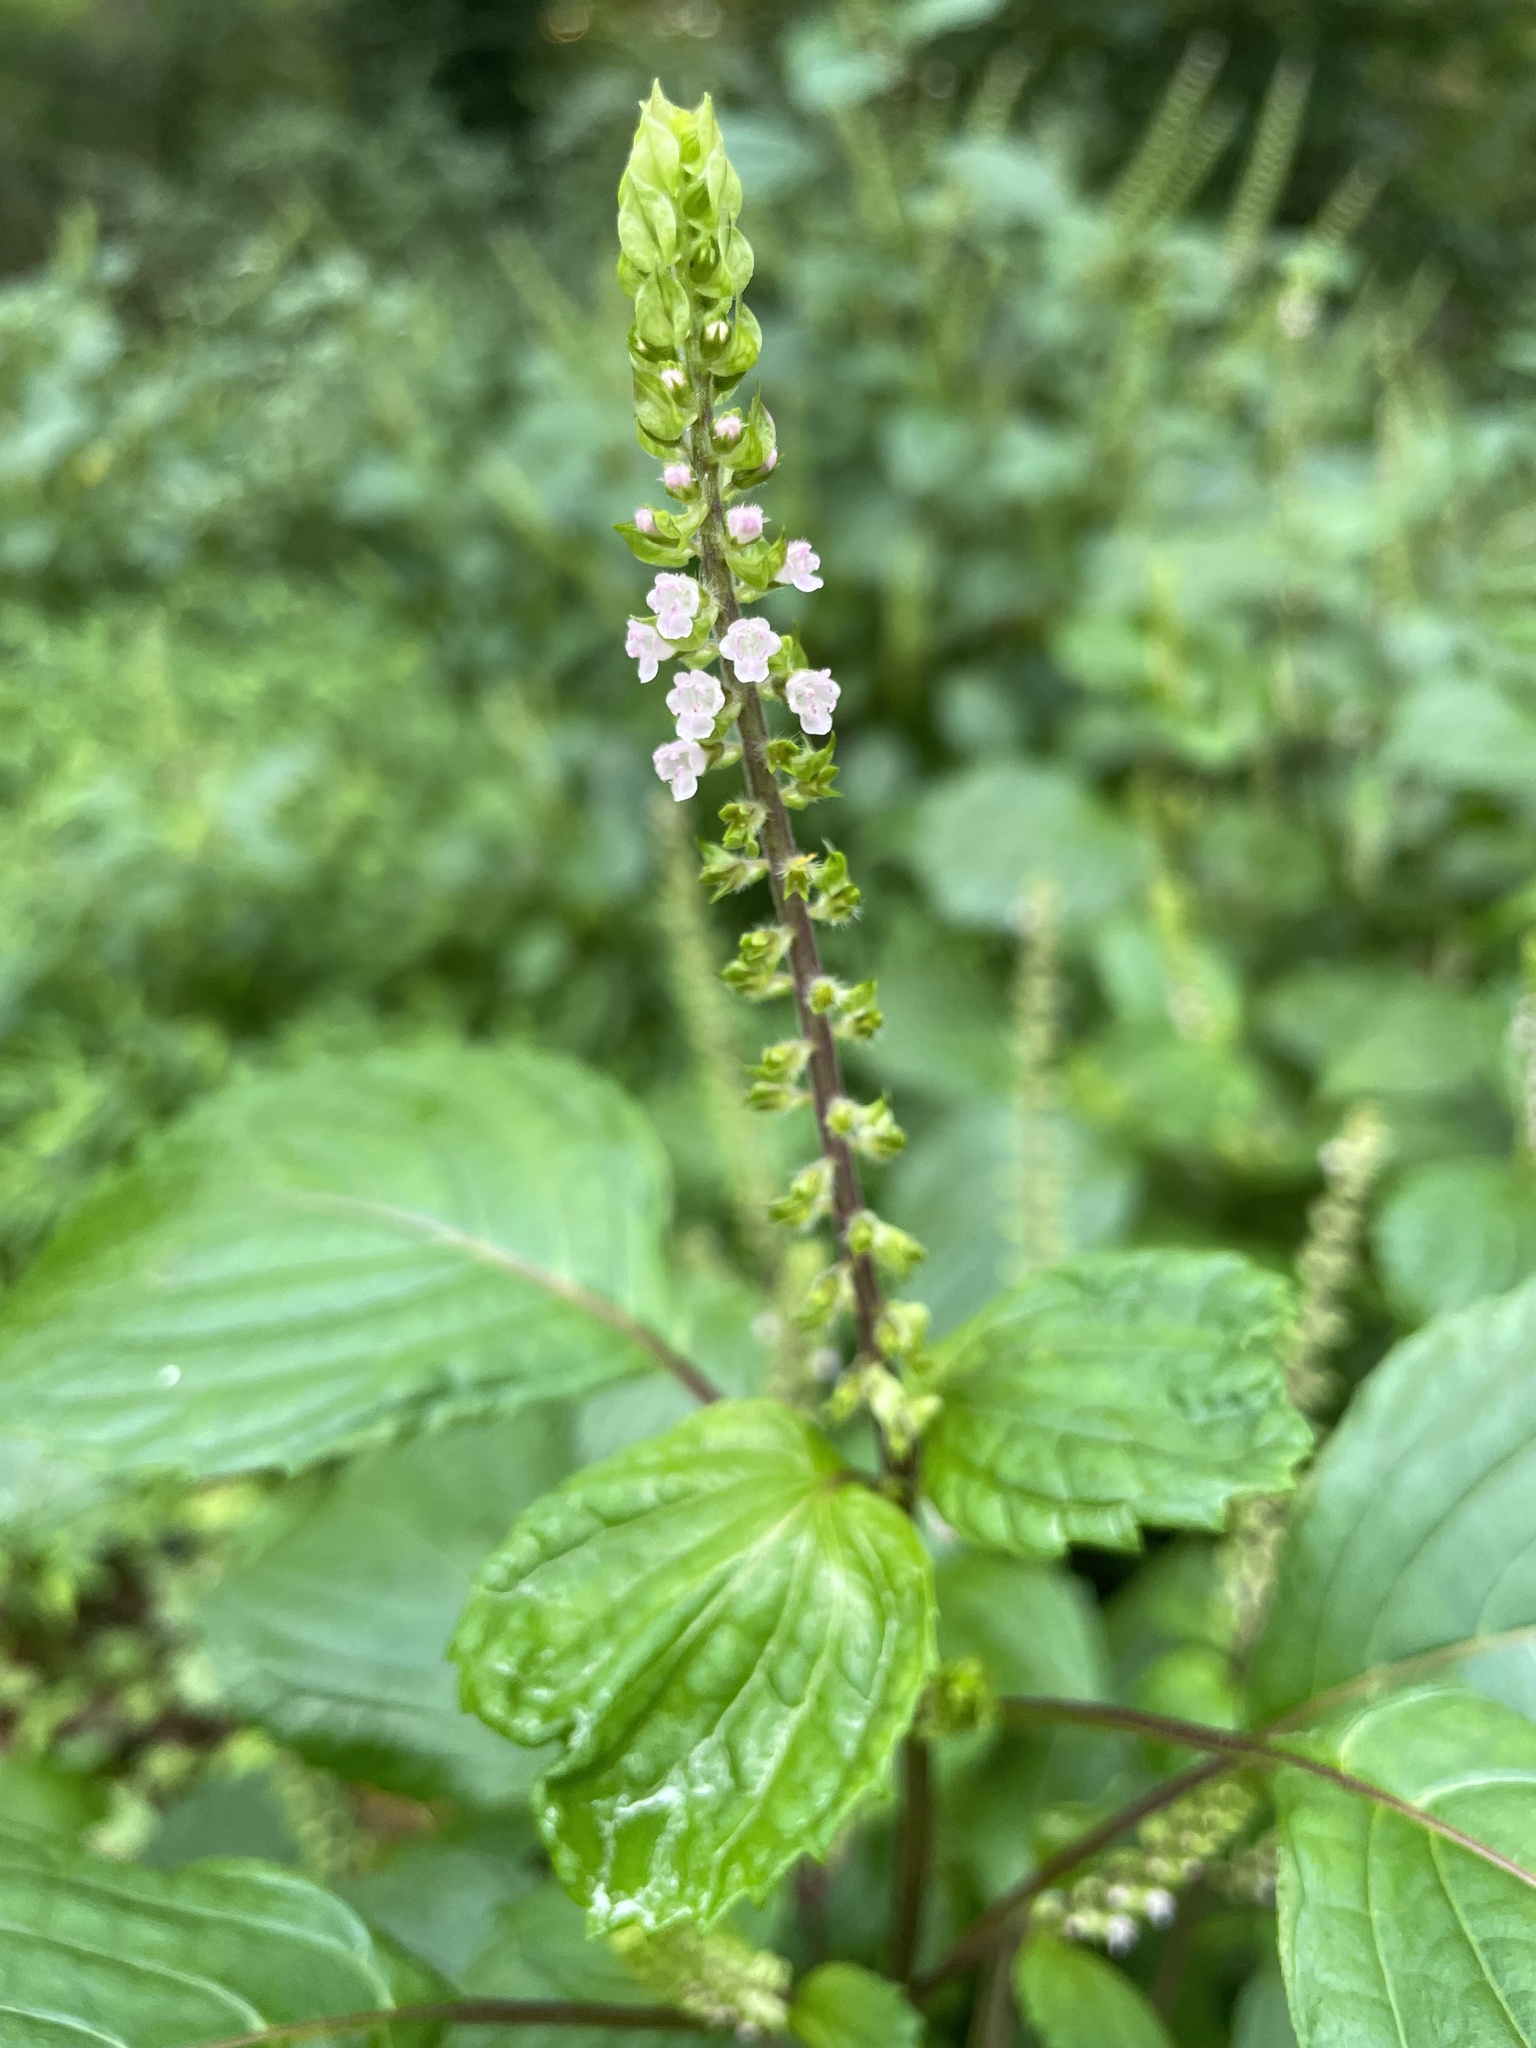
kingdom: Plantae
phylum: Tracheophyta
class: Magnoliopsida
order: Lamiales
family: Lamiaceae
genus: Perilla
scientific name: Perilla frutescens
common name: Perilla
